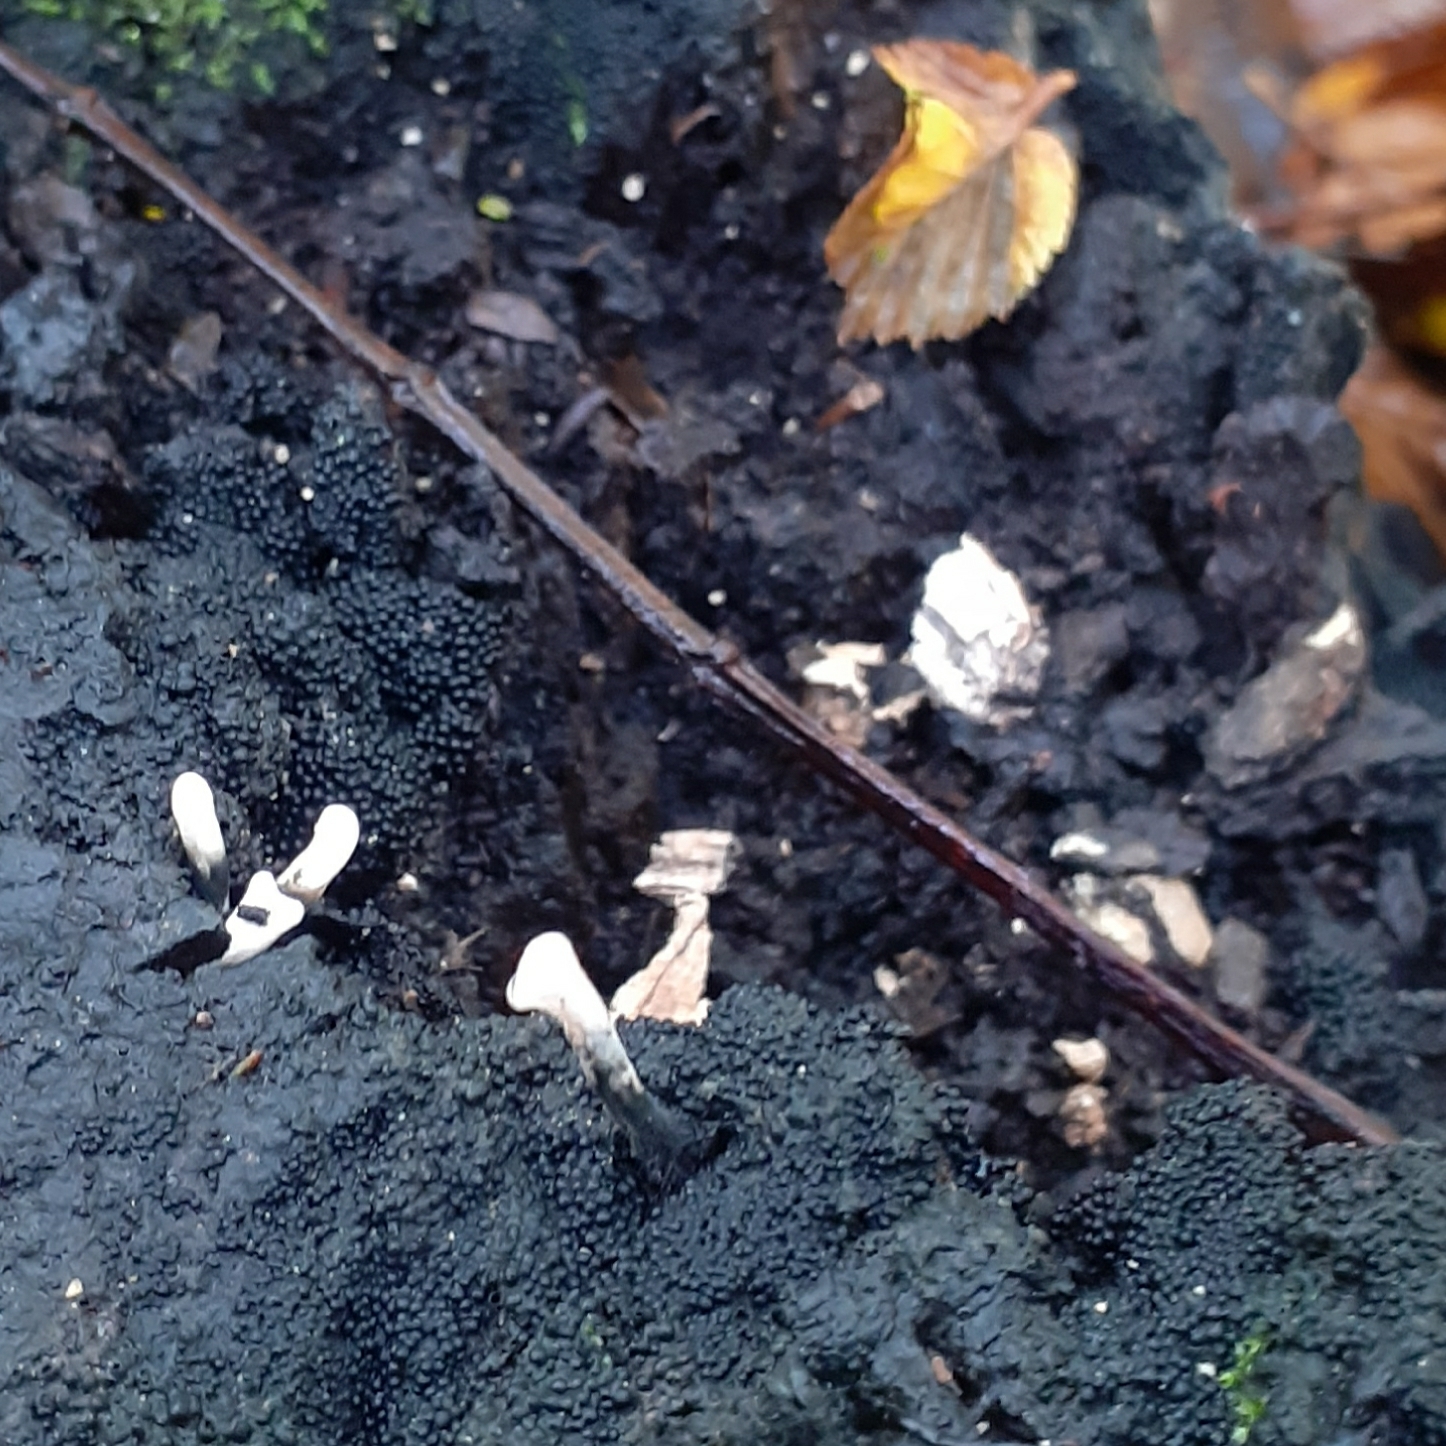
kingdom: Fungi
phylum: Ascomycota
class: Sordariomycetes
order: Xylariales
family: Xylariaceae
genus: Xylaria
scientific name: Xylaria hypoxylon
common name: Candle-snuff fungus
